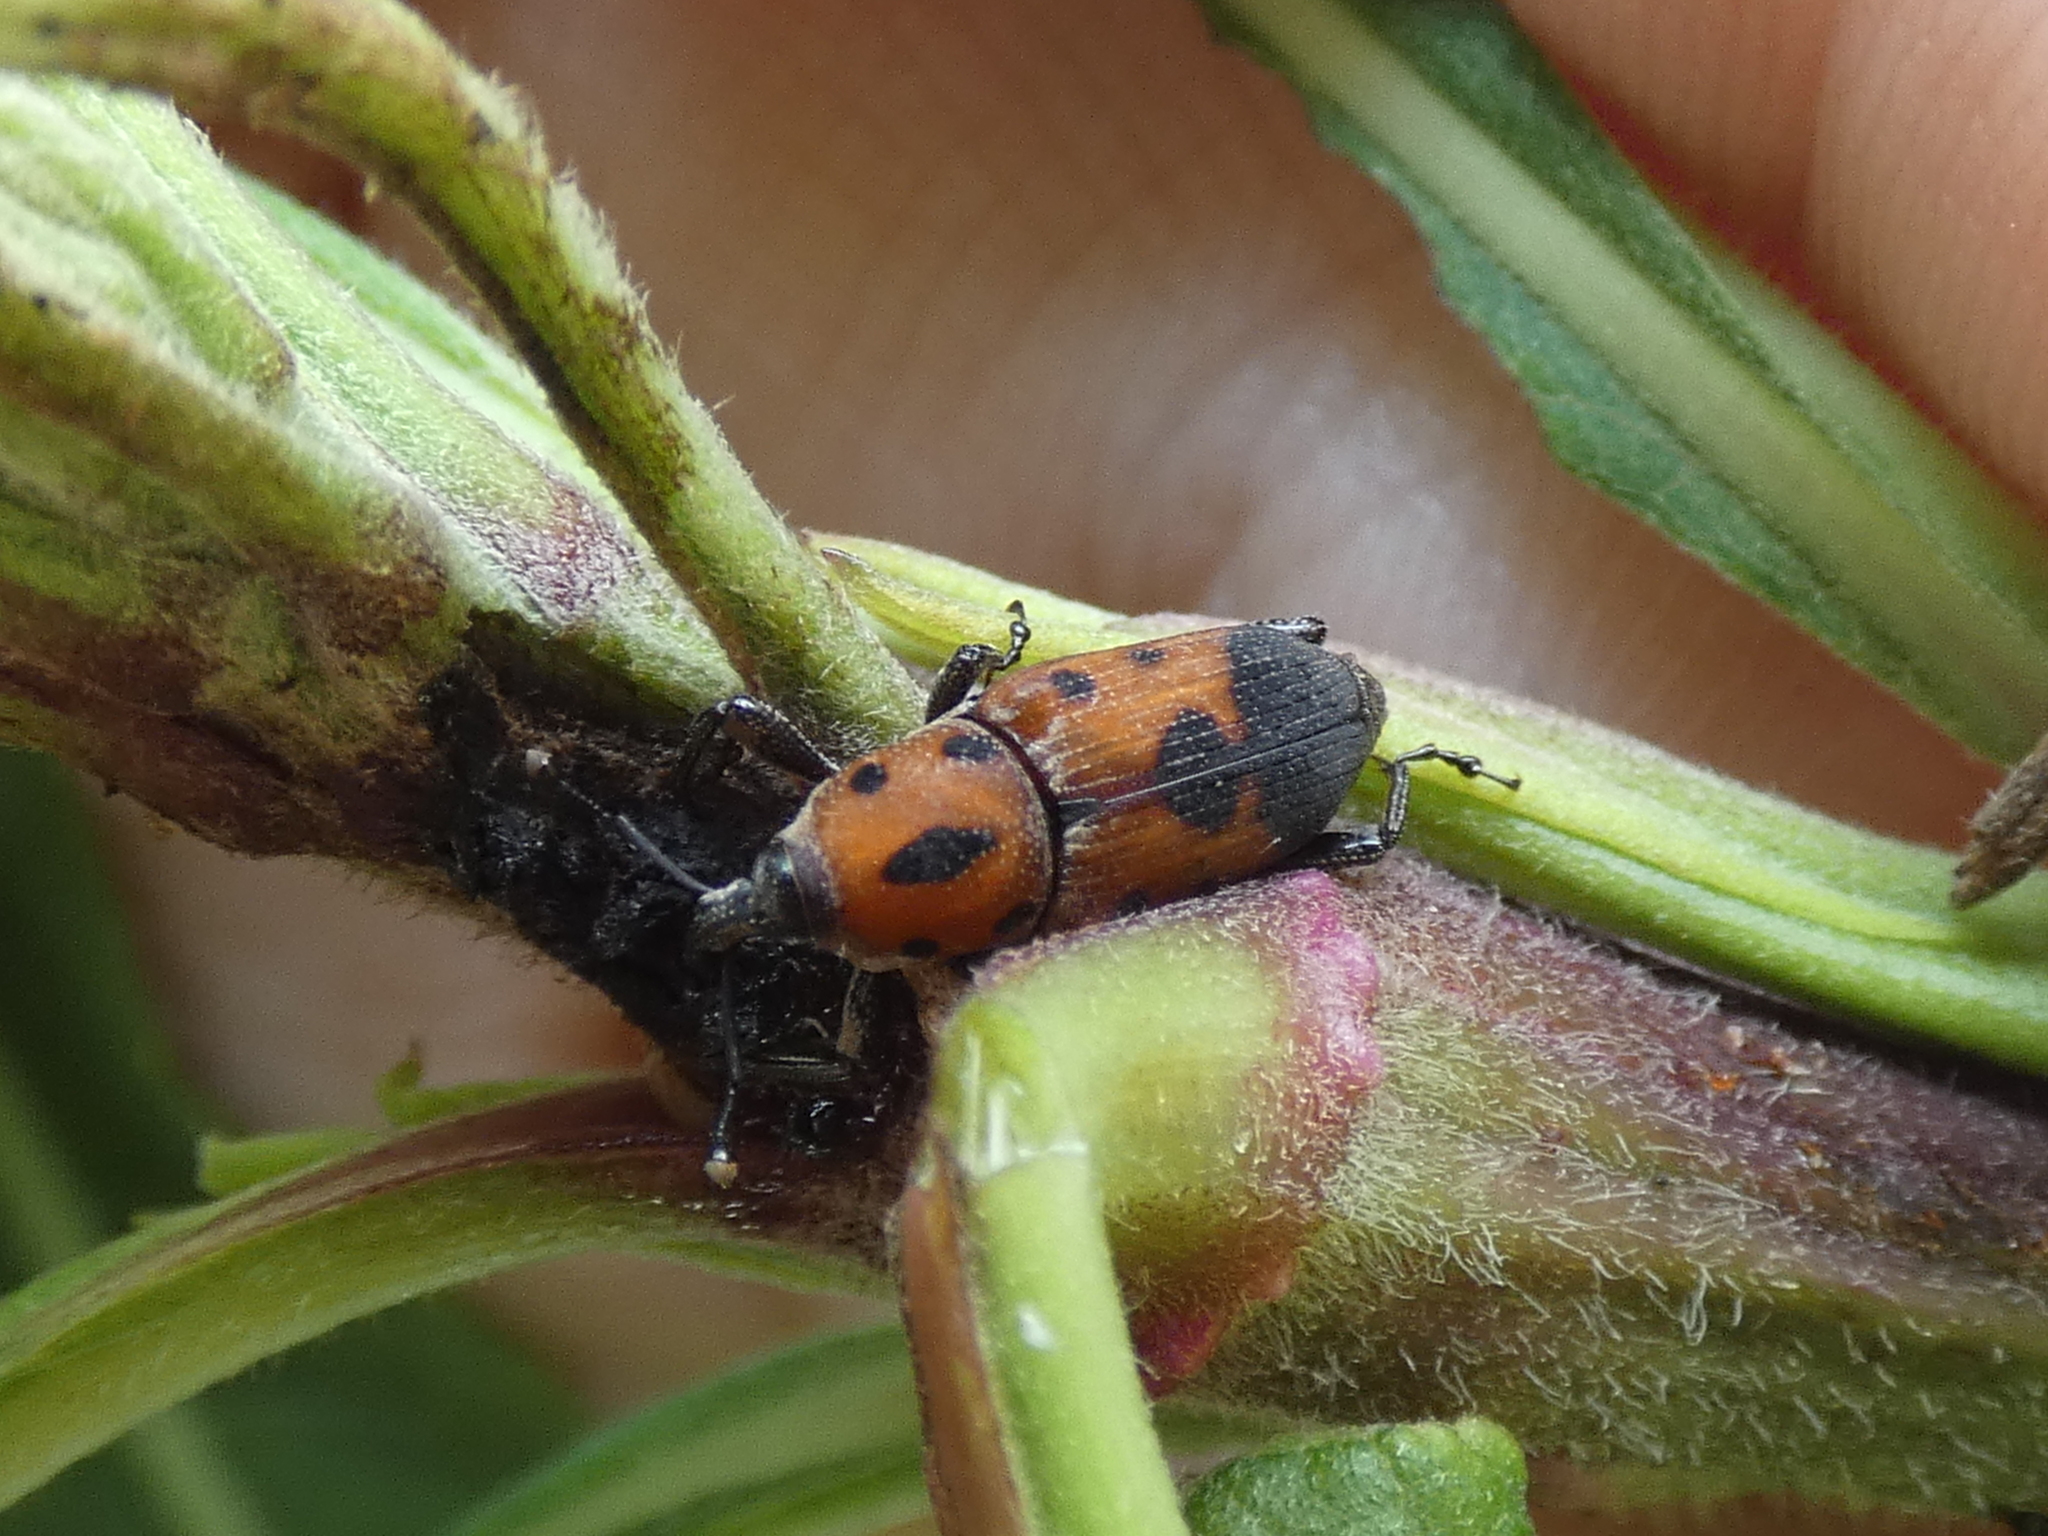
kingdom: Animalia
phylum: Arthropoda
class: Insecta
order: Coleoptera
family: Dryophthoridae
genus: Rhodobaenus
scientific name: Rhodobaenus quinquepunctatus
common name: Cocklebur weevil
